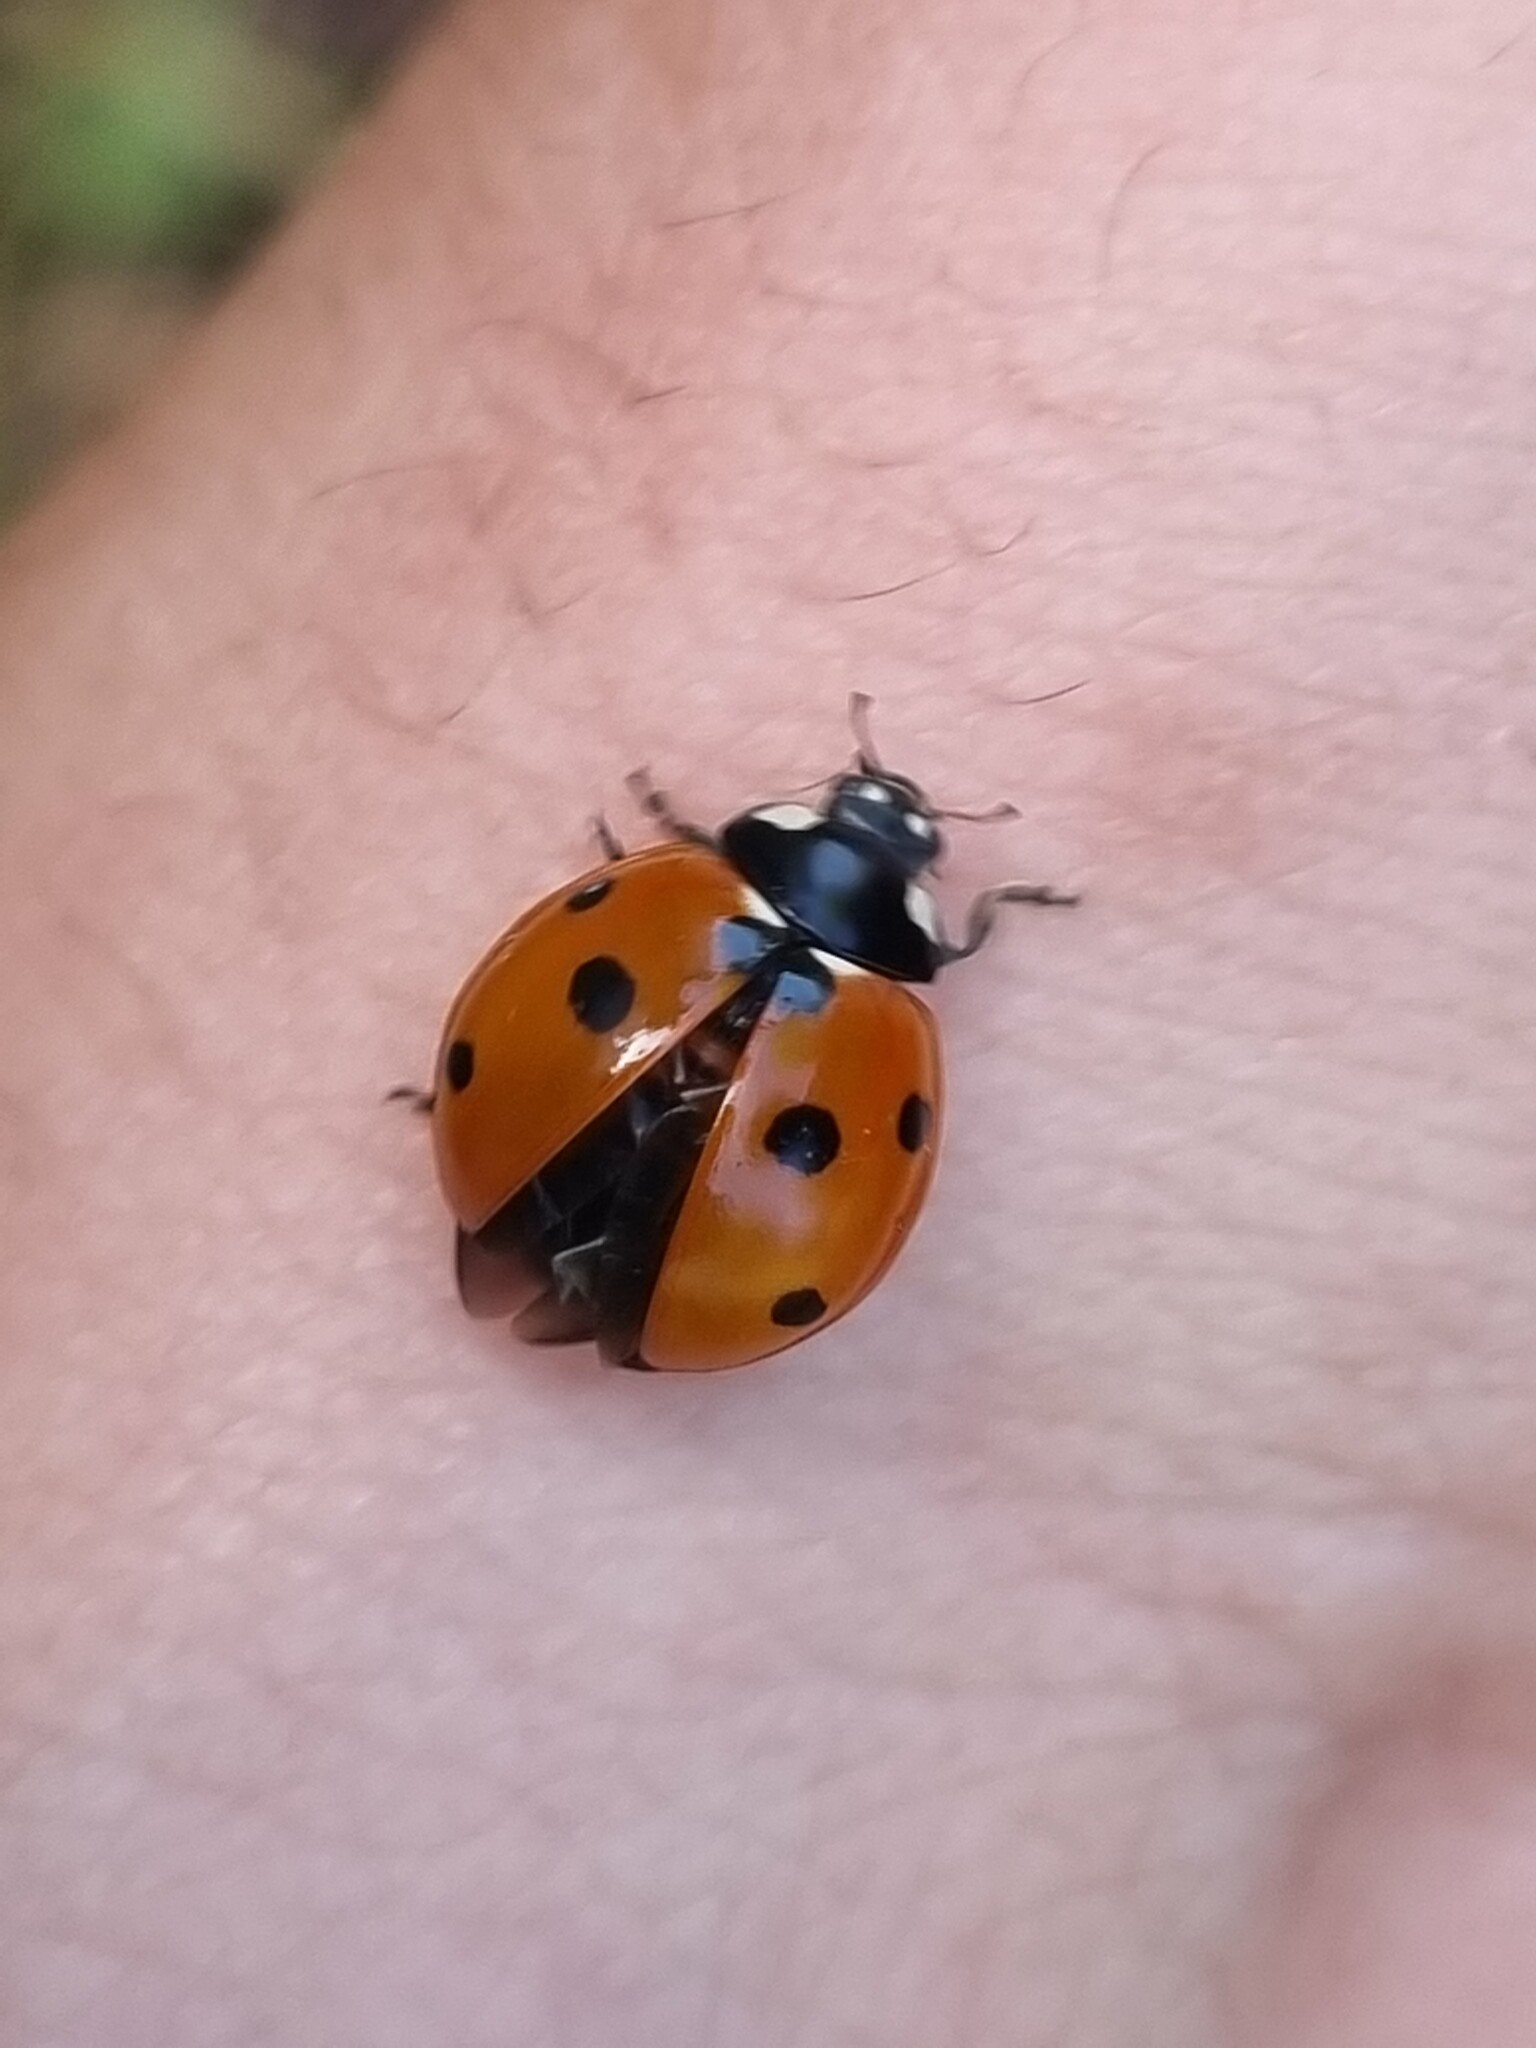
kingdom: Animalia
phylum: Arthropoda
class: Insecta
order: Coleoptera
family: Coccinellidae
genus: Coccinella
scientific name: Coccinella septempunctata
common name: Sevenspotted lady beetle
